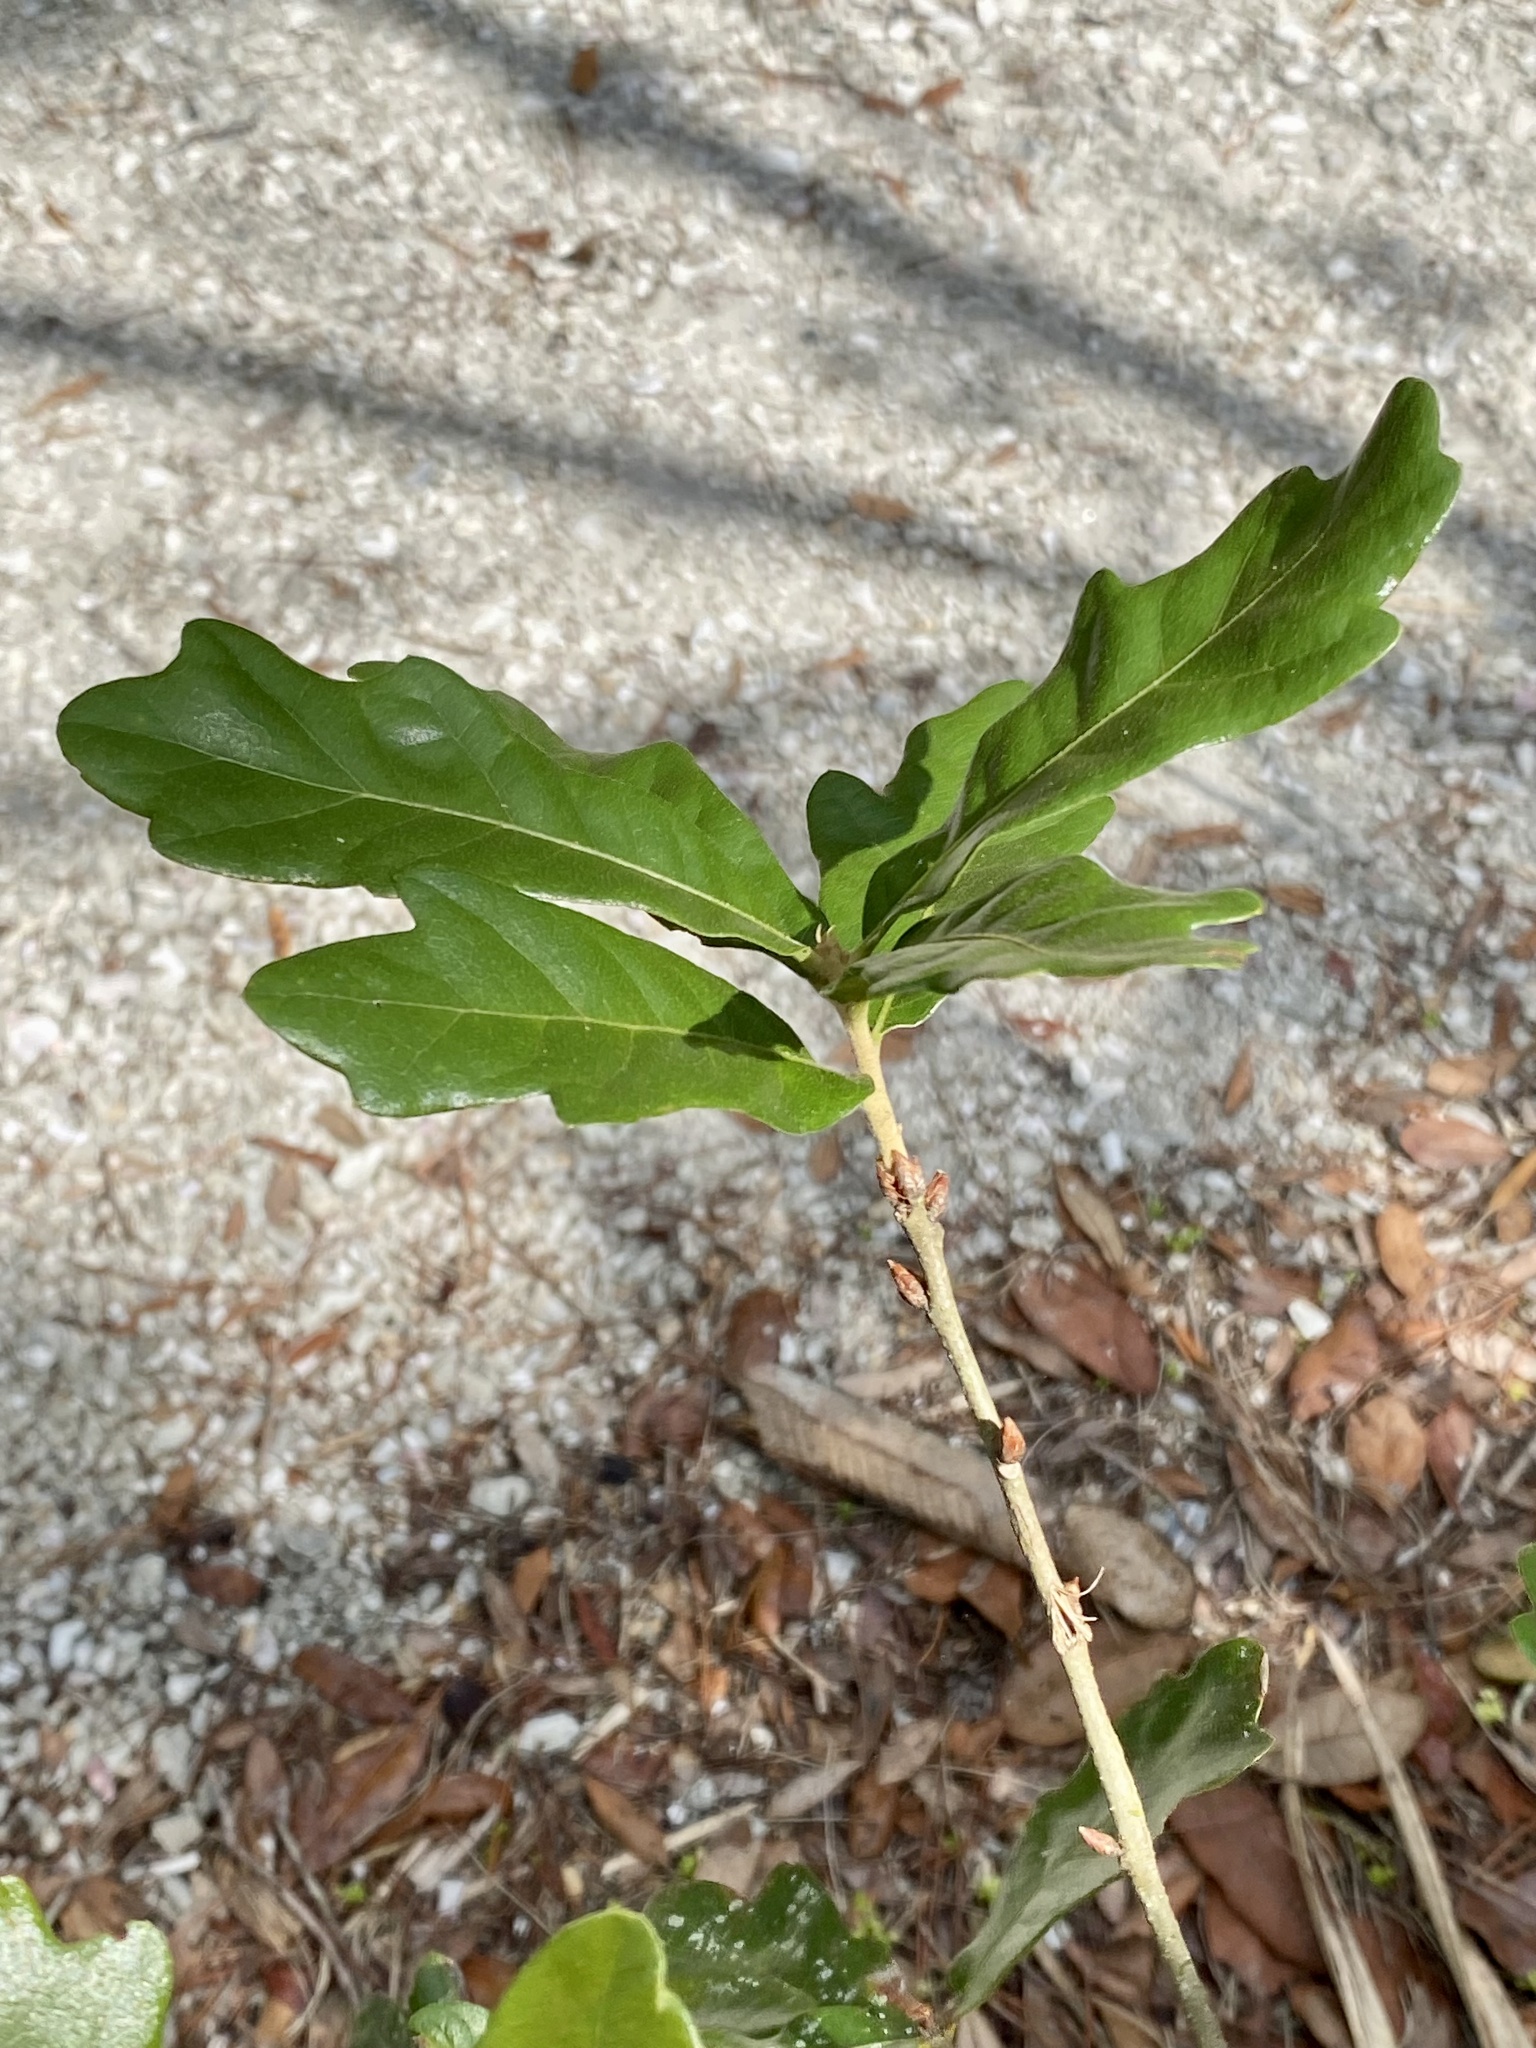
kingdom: Plantae
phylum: Tracheophyta
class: Magnoliopsida
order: Fagales
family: Fagaceae
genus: Quercus
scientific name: Quercus chapmanii
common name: Chapman oak
